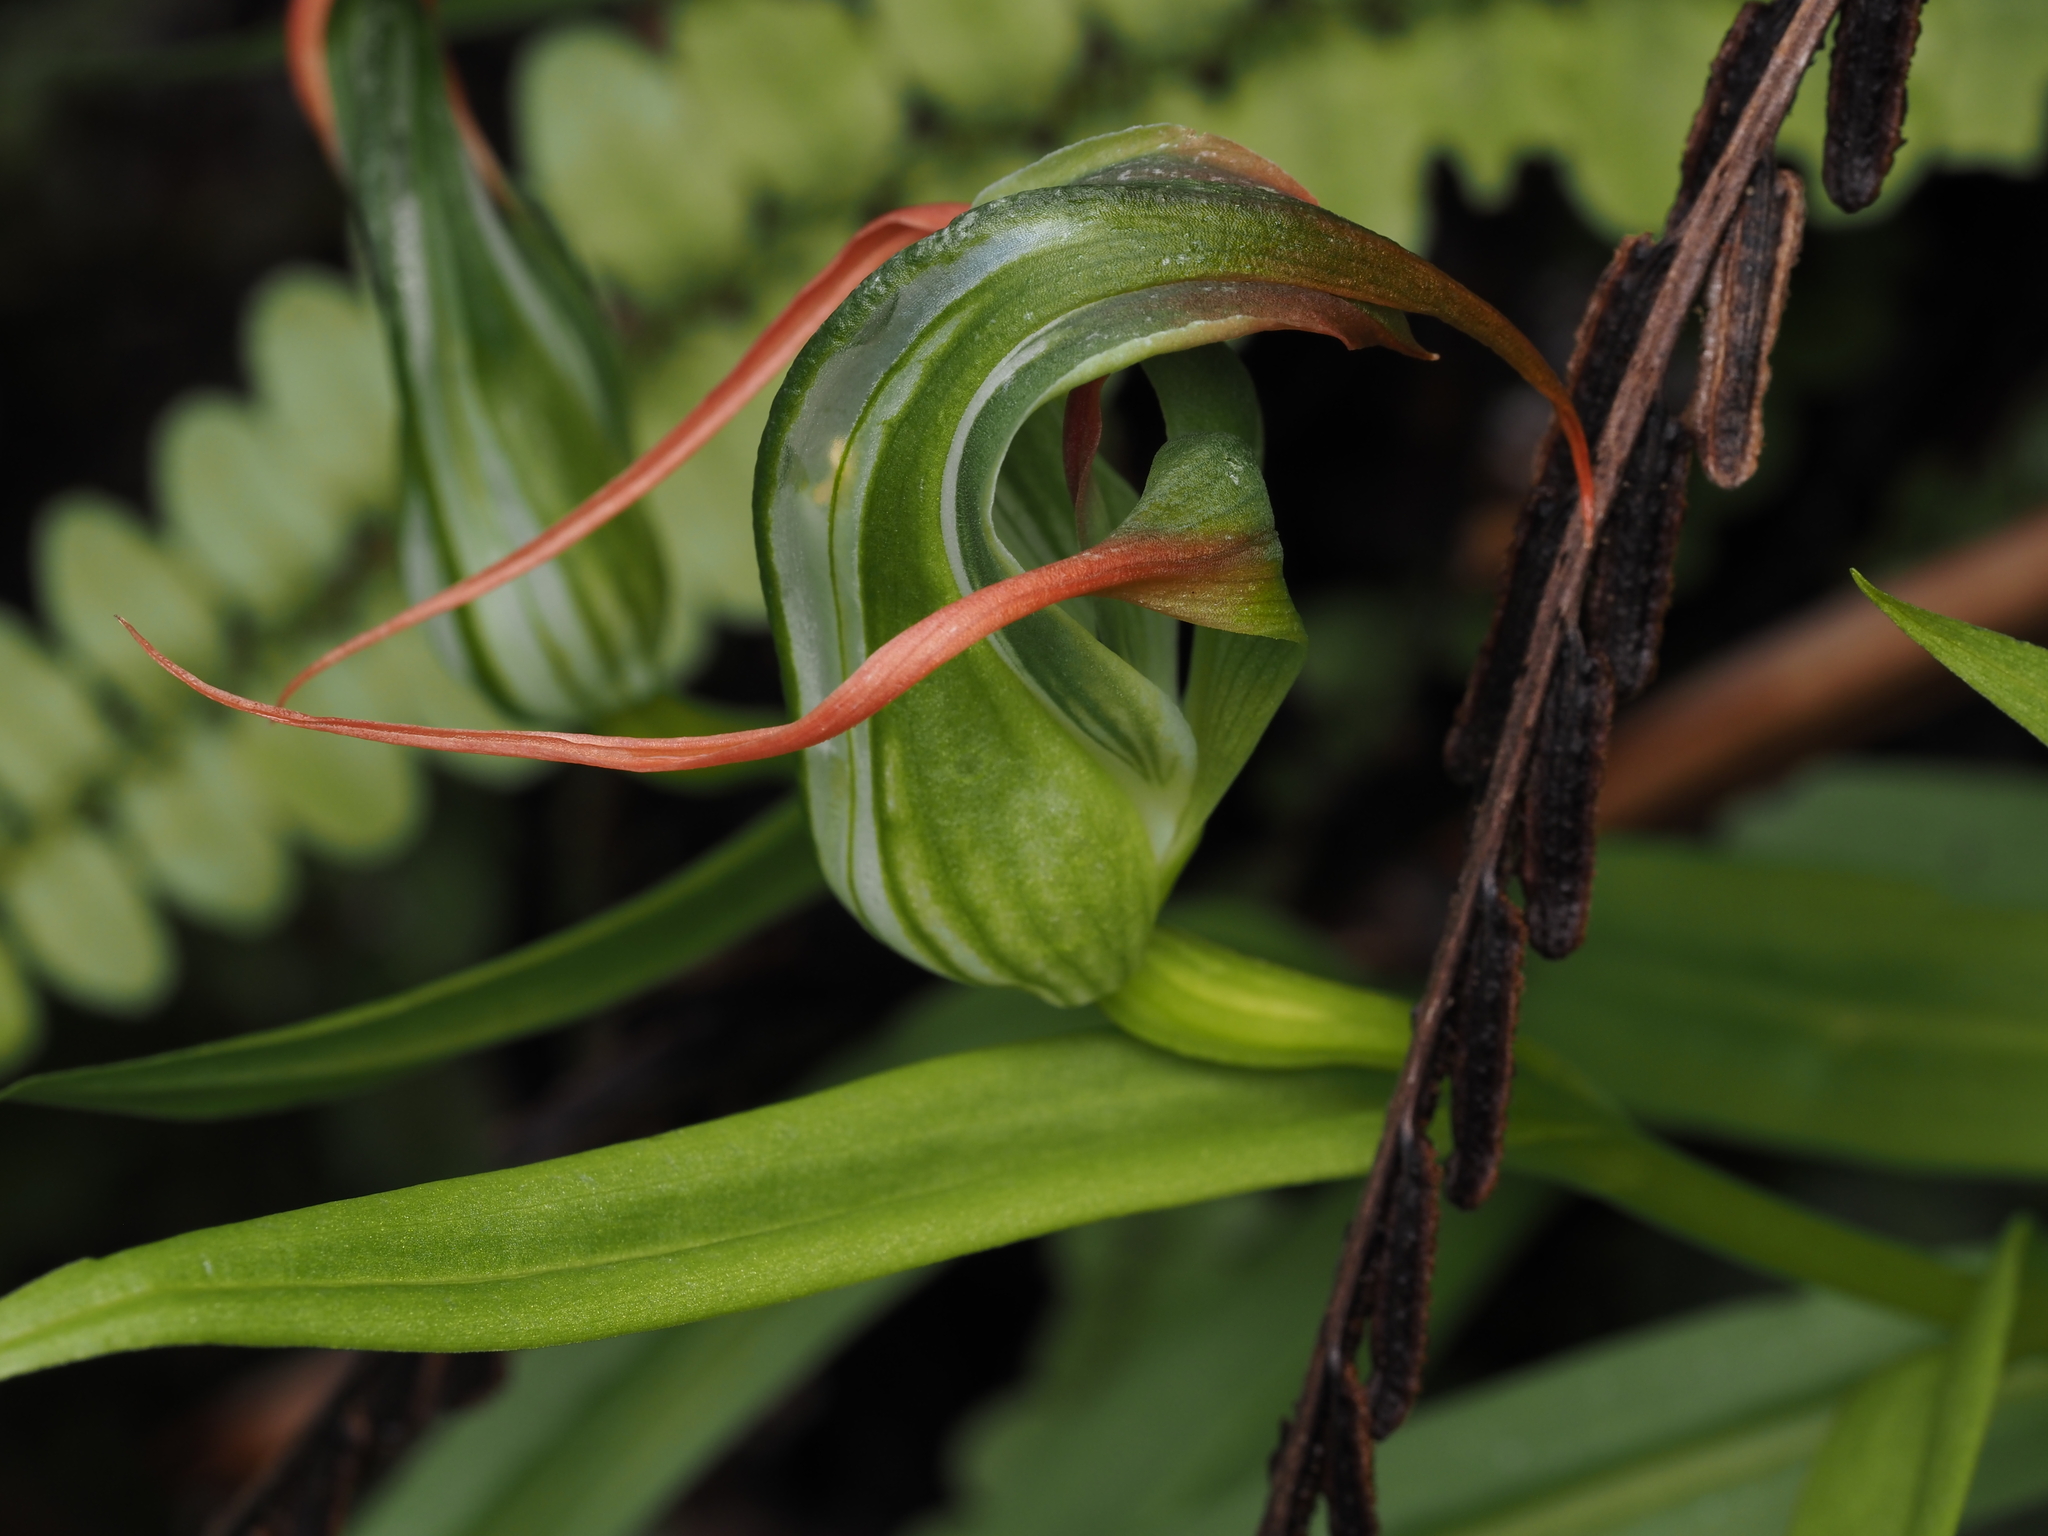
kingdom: Plantae
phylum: Tracheophyta
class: Liliopsida
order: Asparagales
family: Orchidaceae
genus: Pterostylis
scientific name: Pterostylis patens
